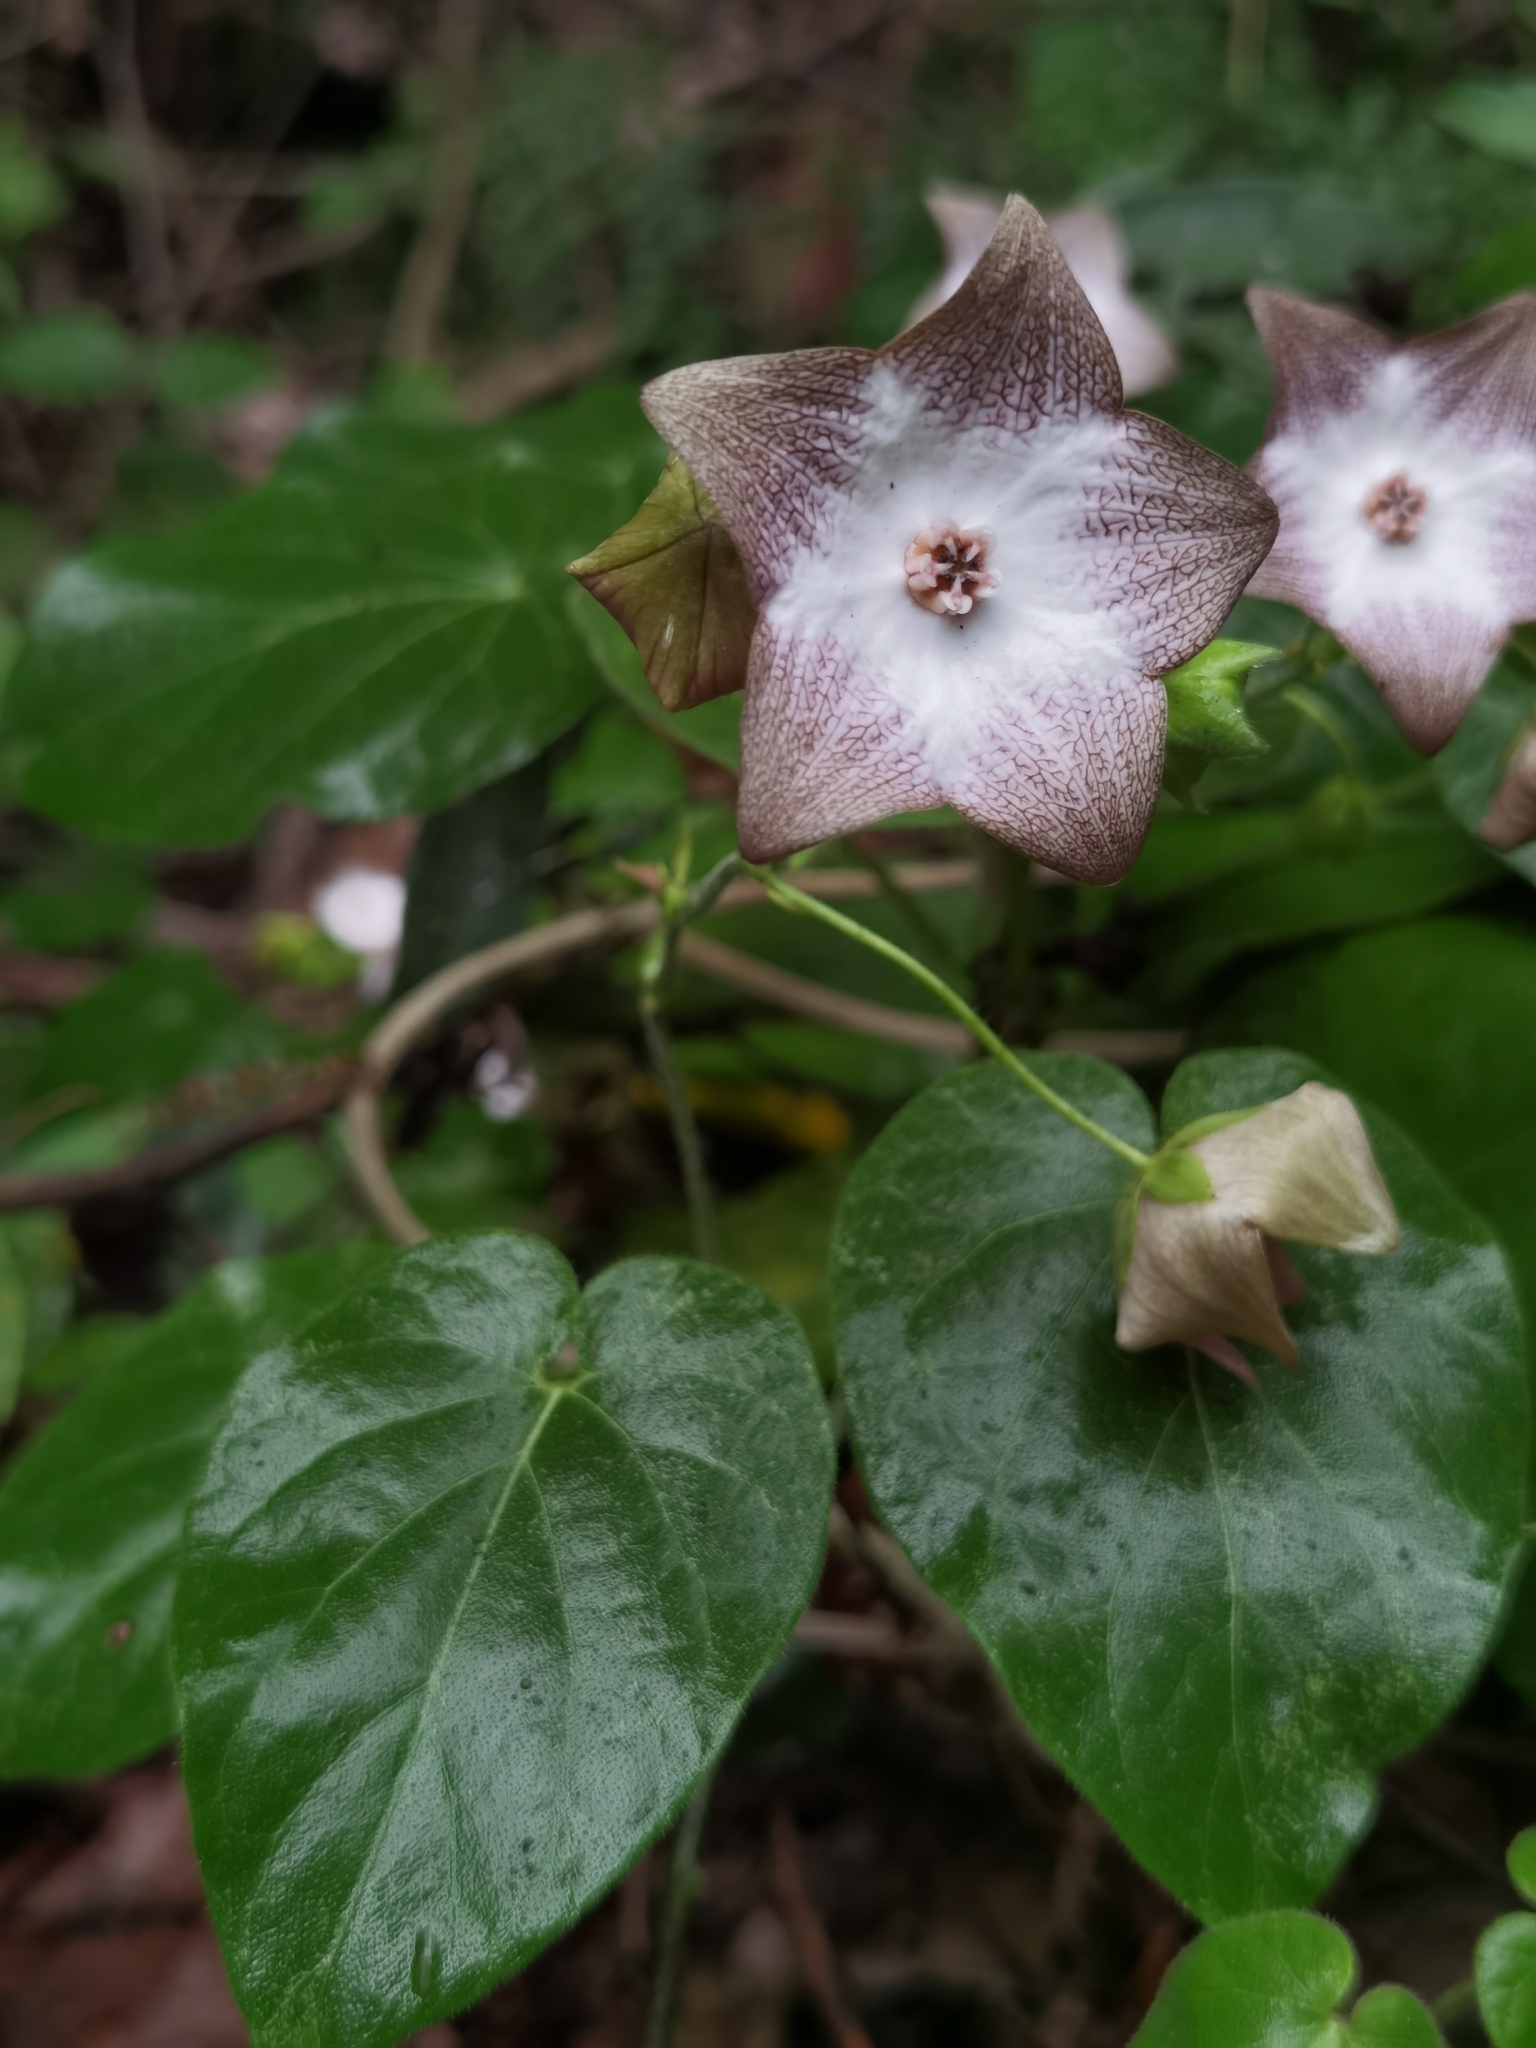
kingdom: Plantae
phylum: Tracheophyta
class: Magnoliopsida
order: Gentianales
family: Apocynaceae
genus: Polystemma
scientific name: Polystemma guatemalense
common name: Arborescente rattan
